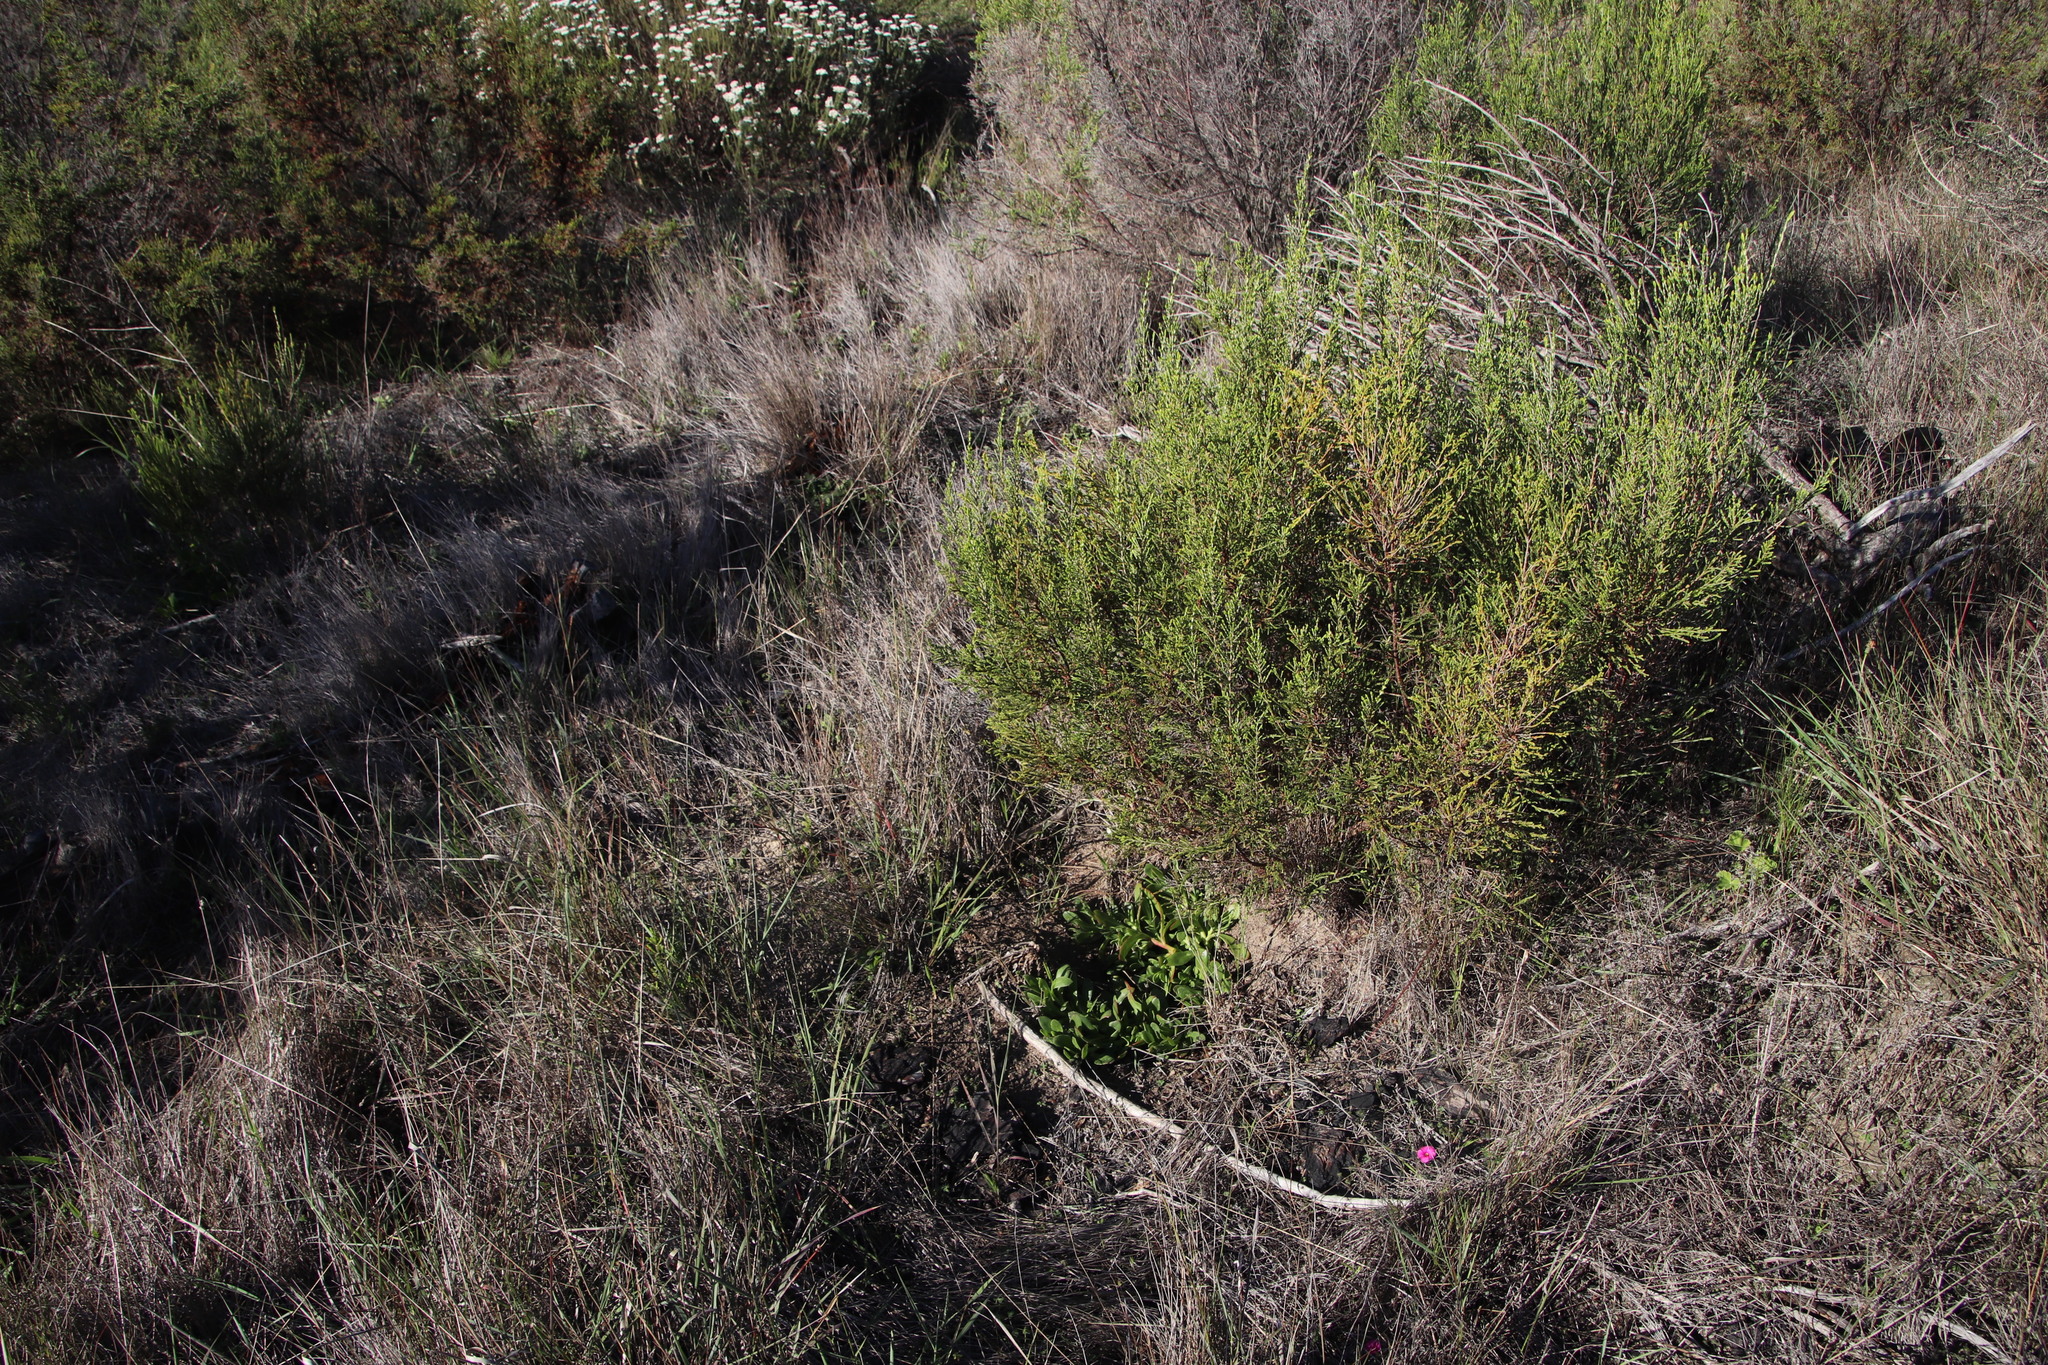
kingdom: Plantae
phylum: Tracheophyta
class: Magnoliopsida
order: Caryophyllales
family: Aizoaceae
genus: Skiatophytum
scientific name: Skiatophytum tripolium
